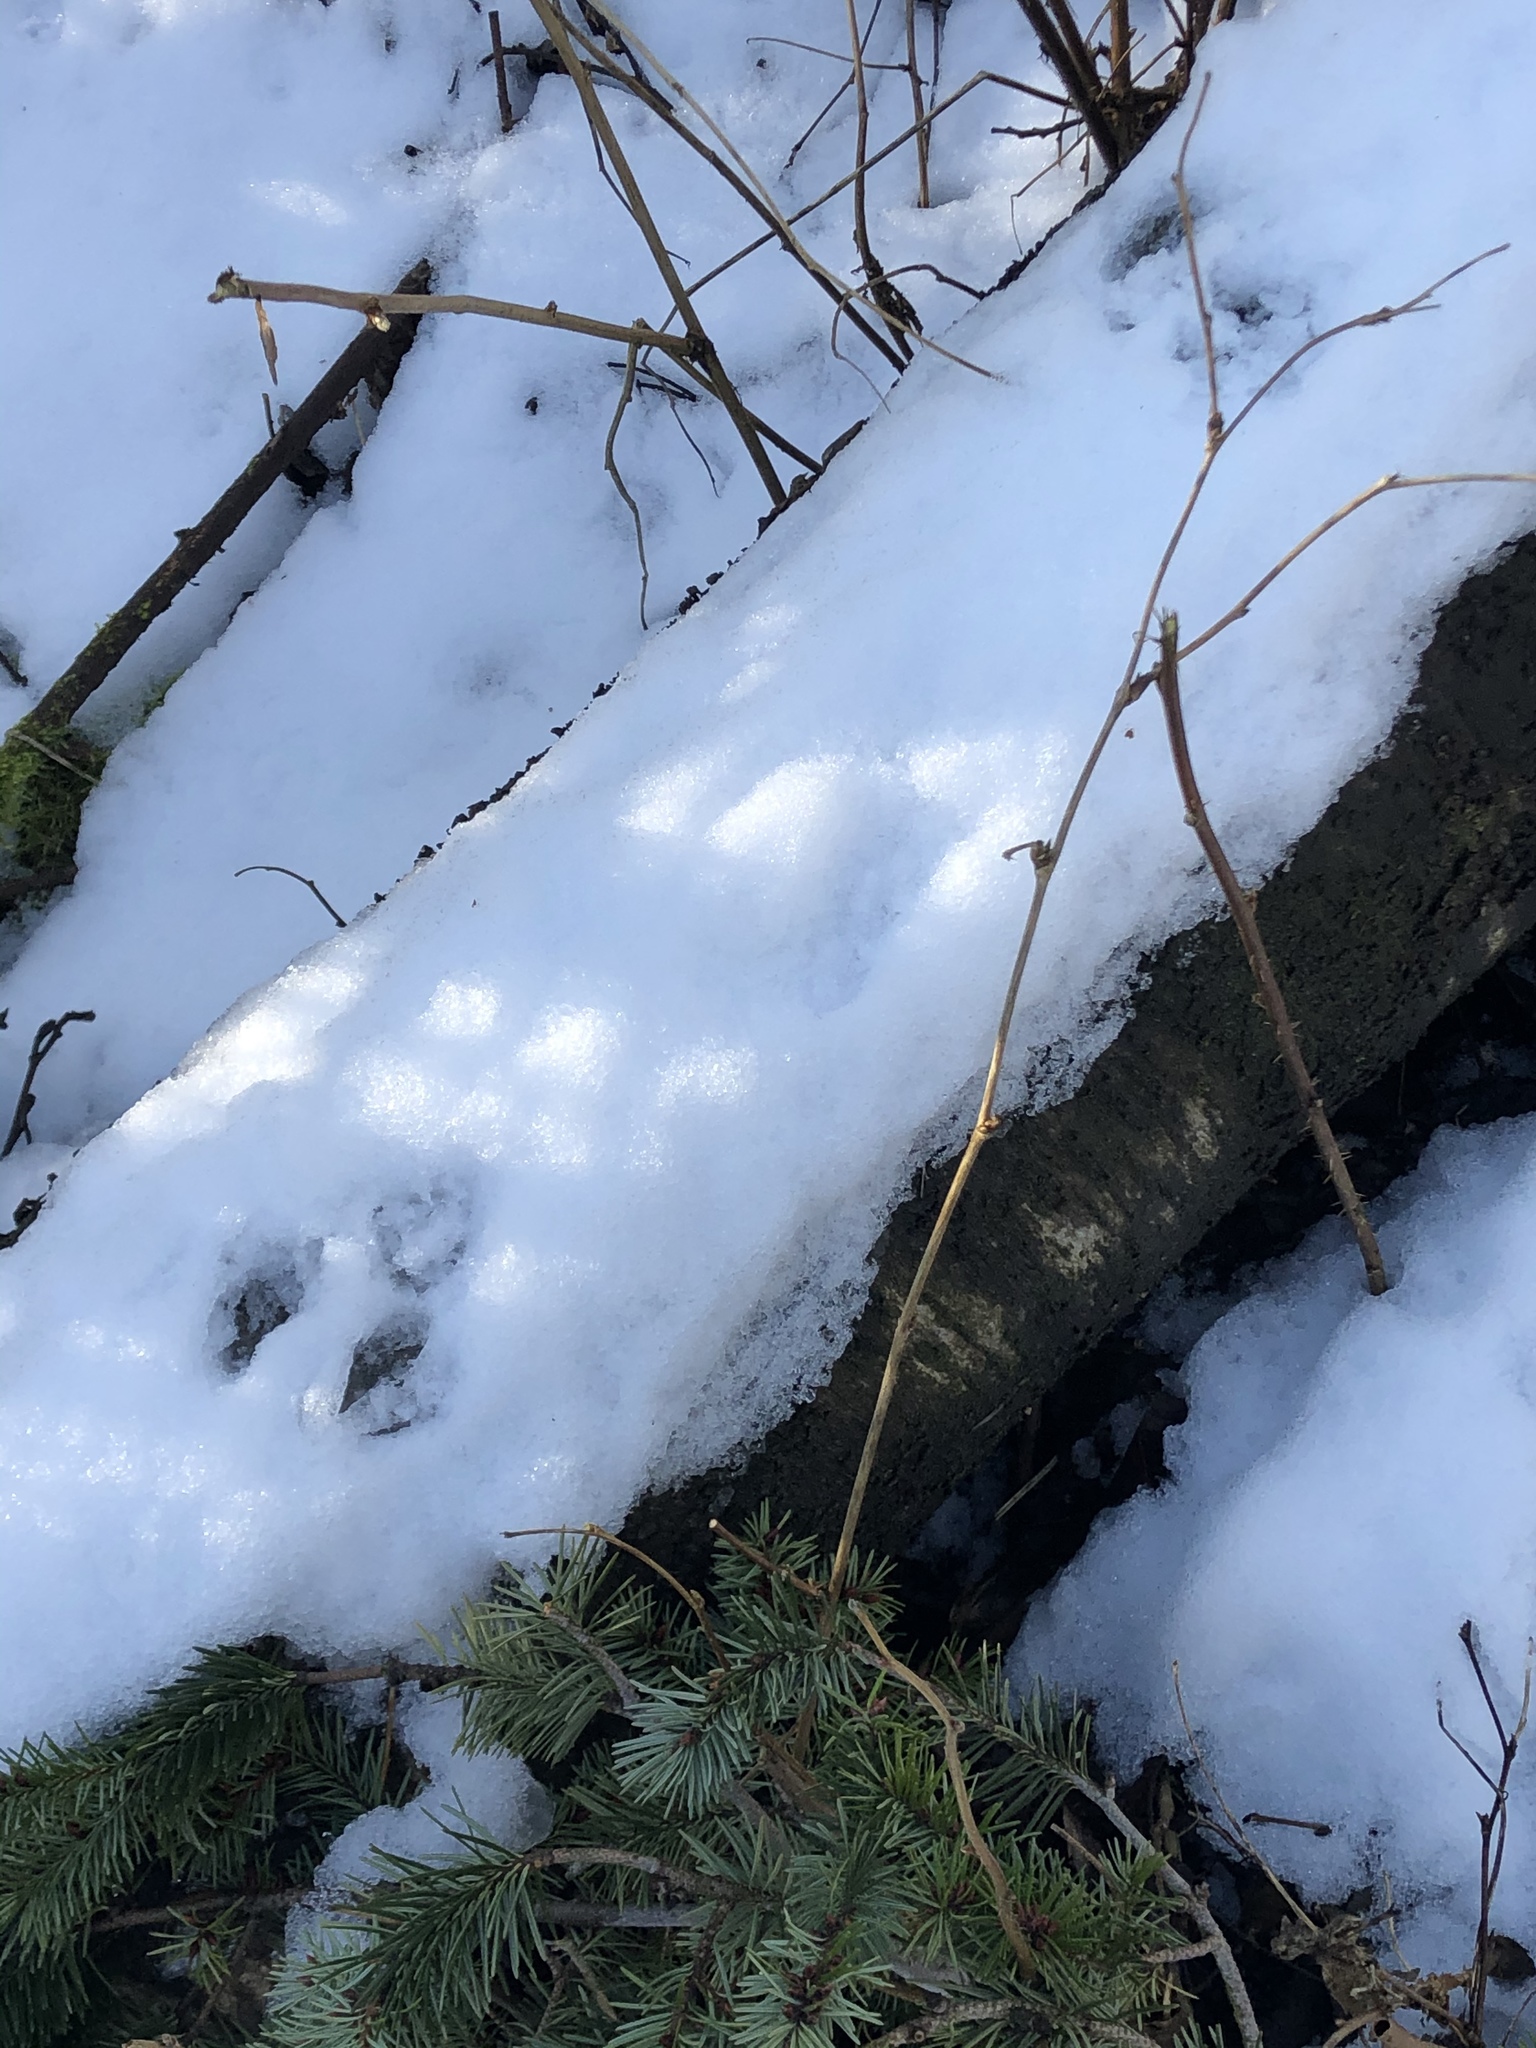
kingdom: Animalia
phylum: Chordata
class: Mammalia
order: Rodentia
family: Sciuridae
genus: Sciurus
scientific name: Sciurus carolinensis
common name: Eastern gray squirrel
